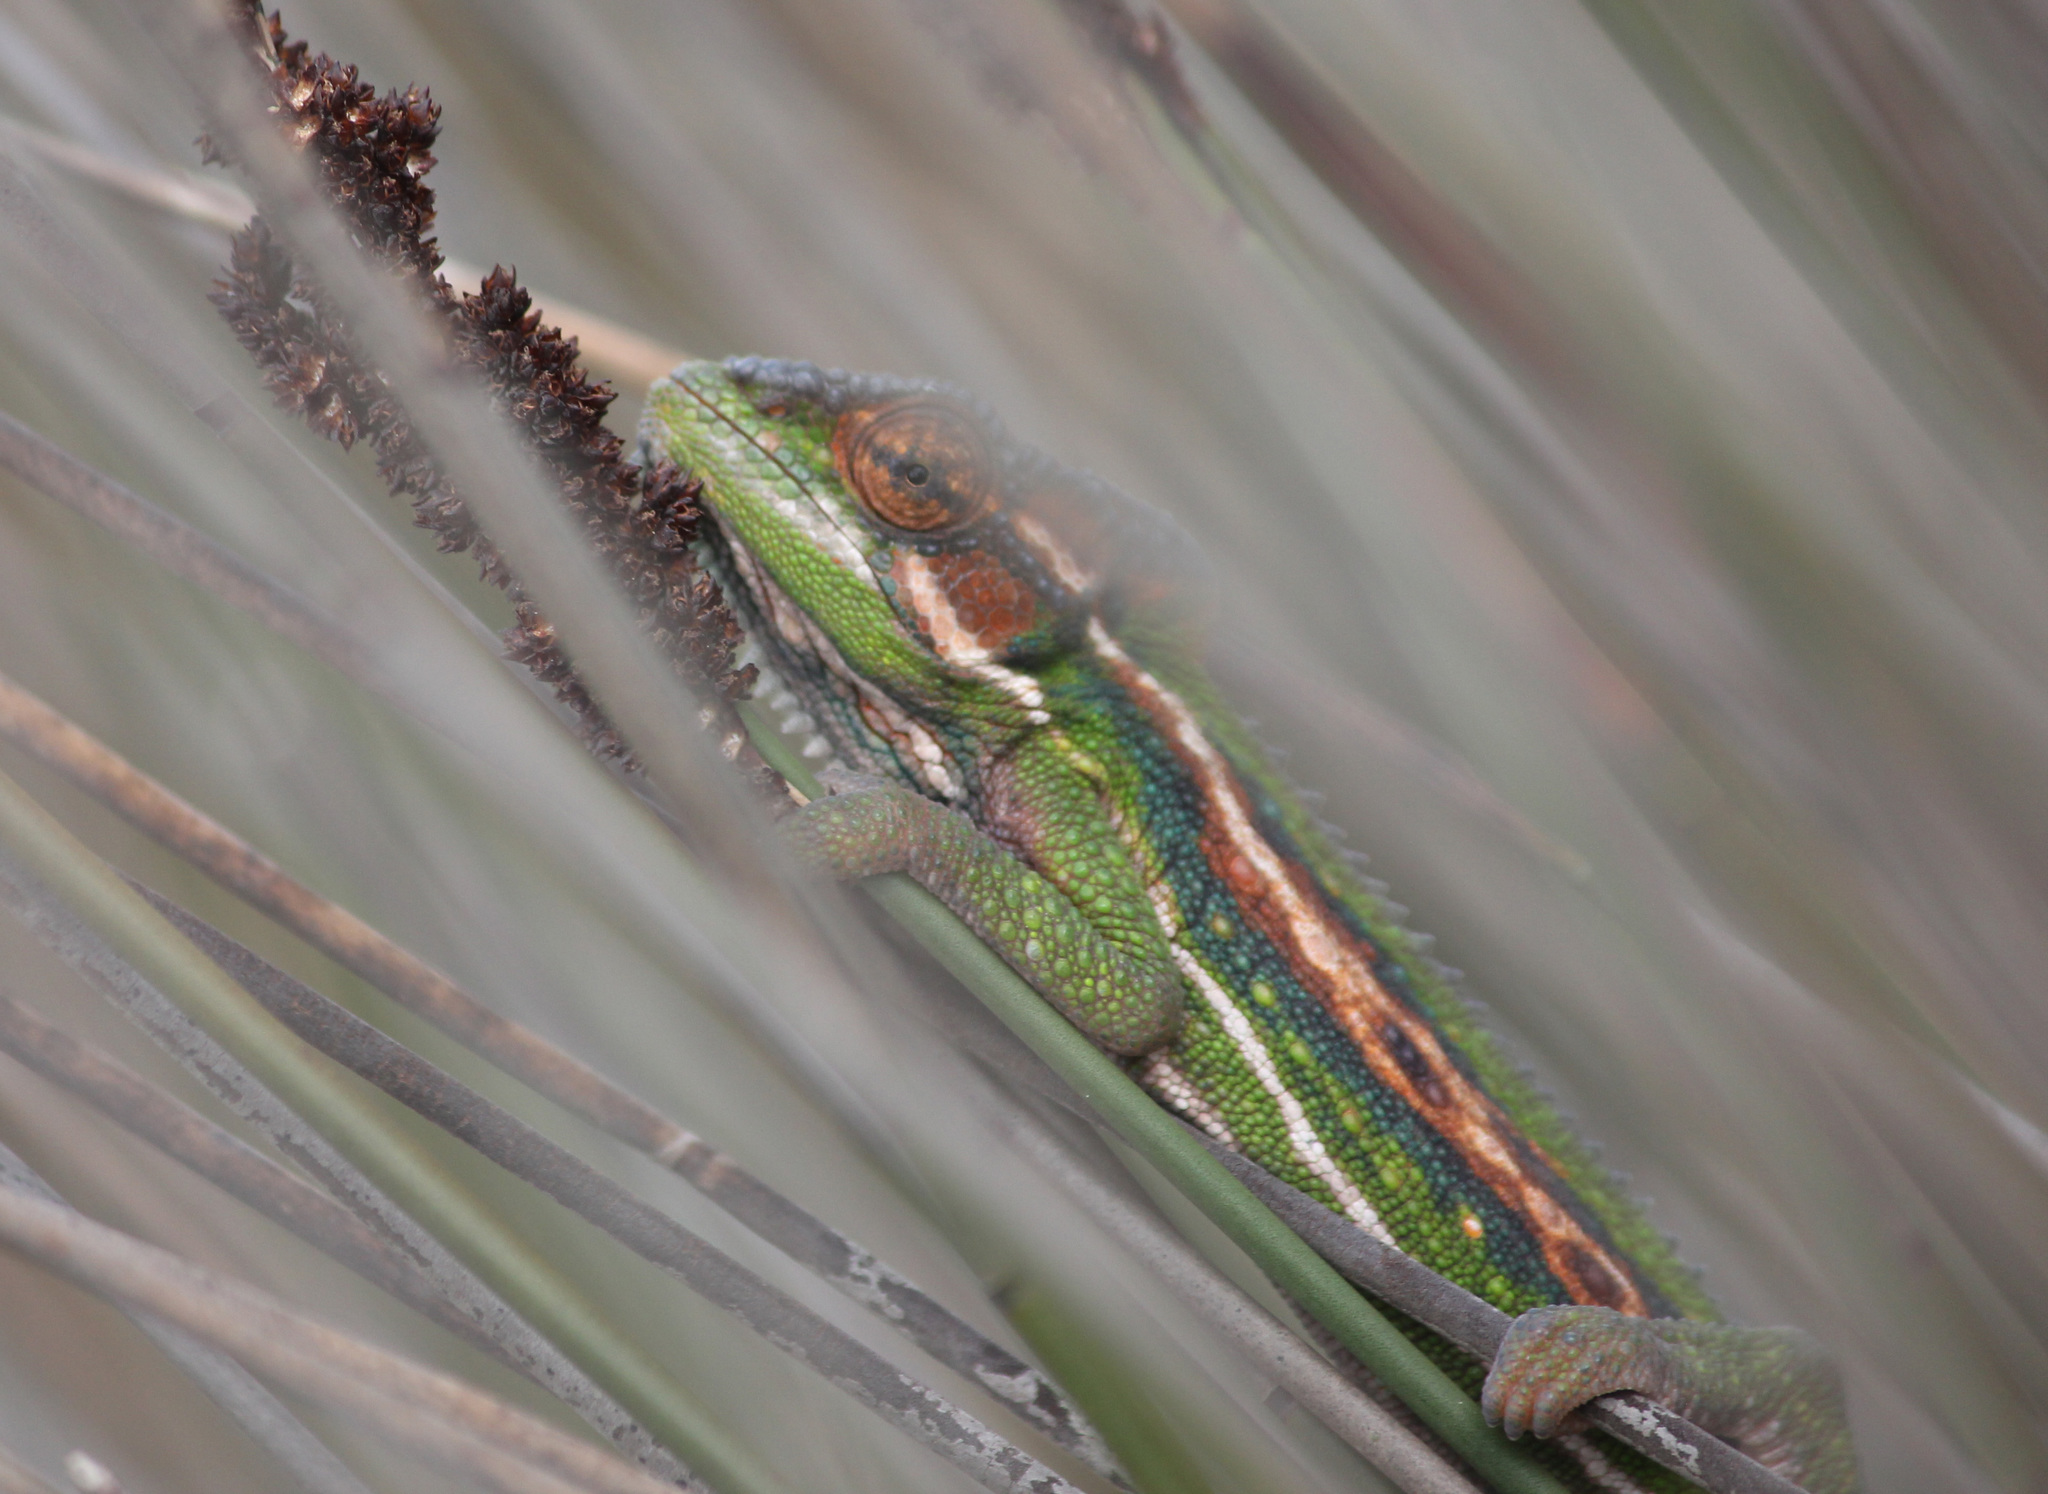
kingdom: Animalia
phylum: Chordata
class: Squamata
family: Chamaeleonidae
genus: Bradypodion
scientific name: Bradypodion pumilum
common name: Cape dwarf chameleon
